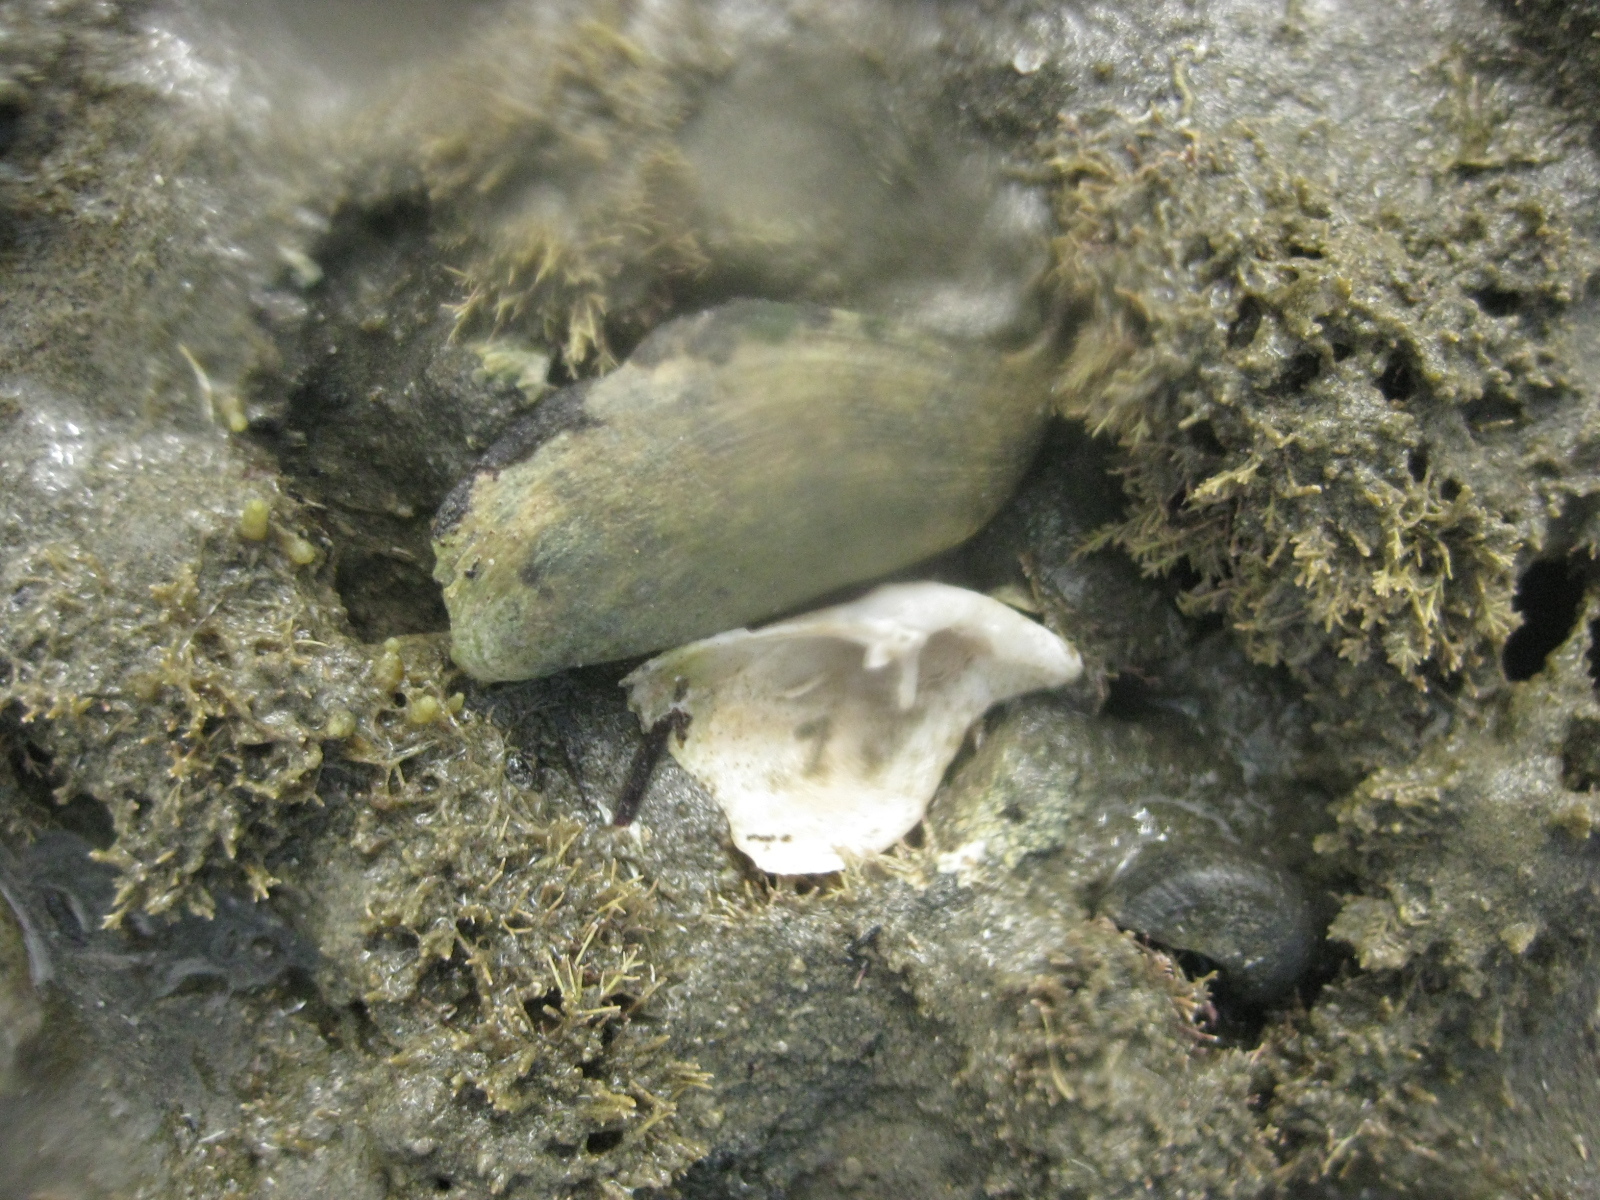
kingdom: Animalia
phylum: Mollusca
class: Bivalvia
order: Myida
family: Pholadidae
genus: Barnea
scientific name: Barnea similis
